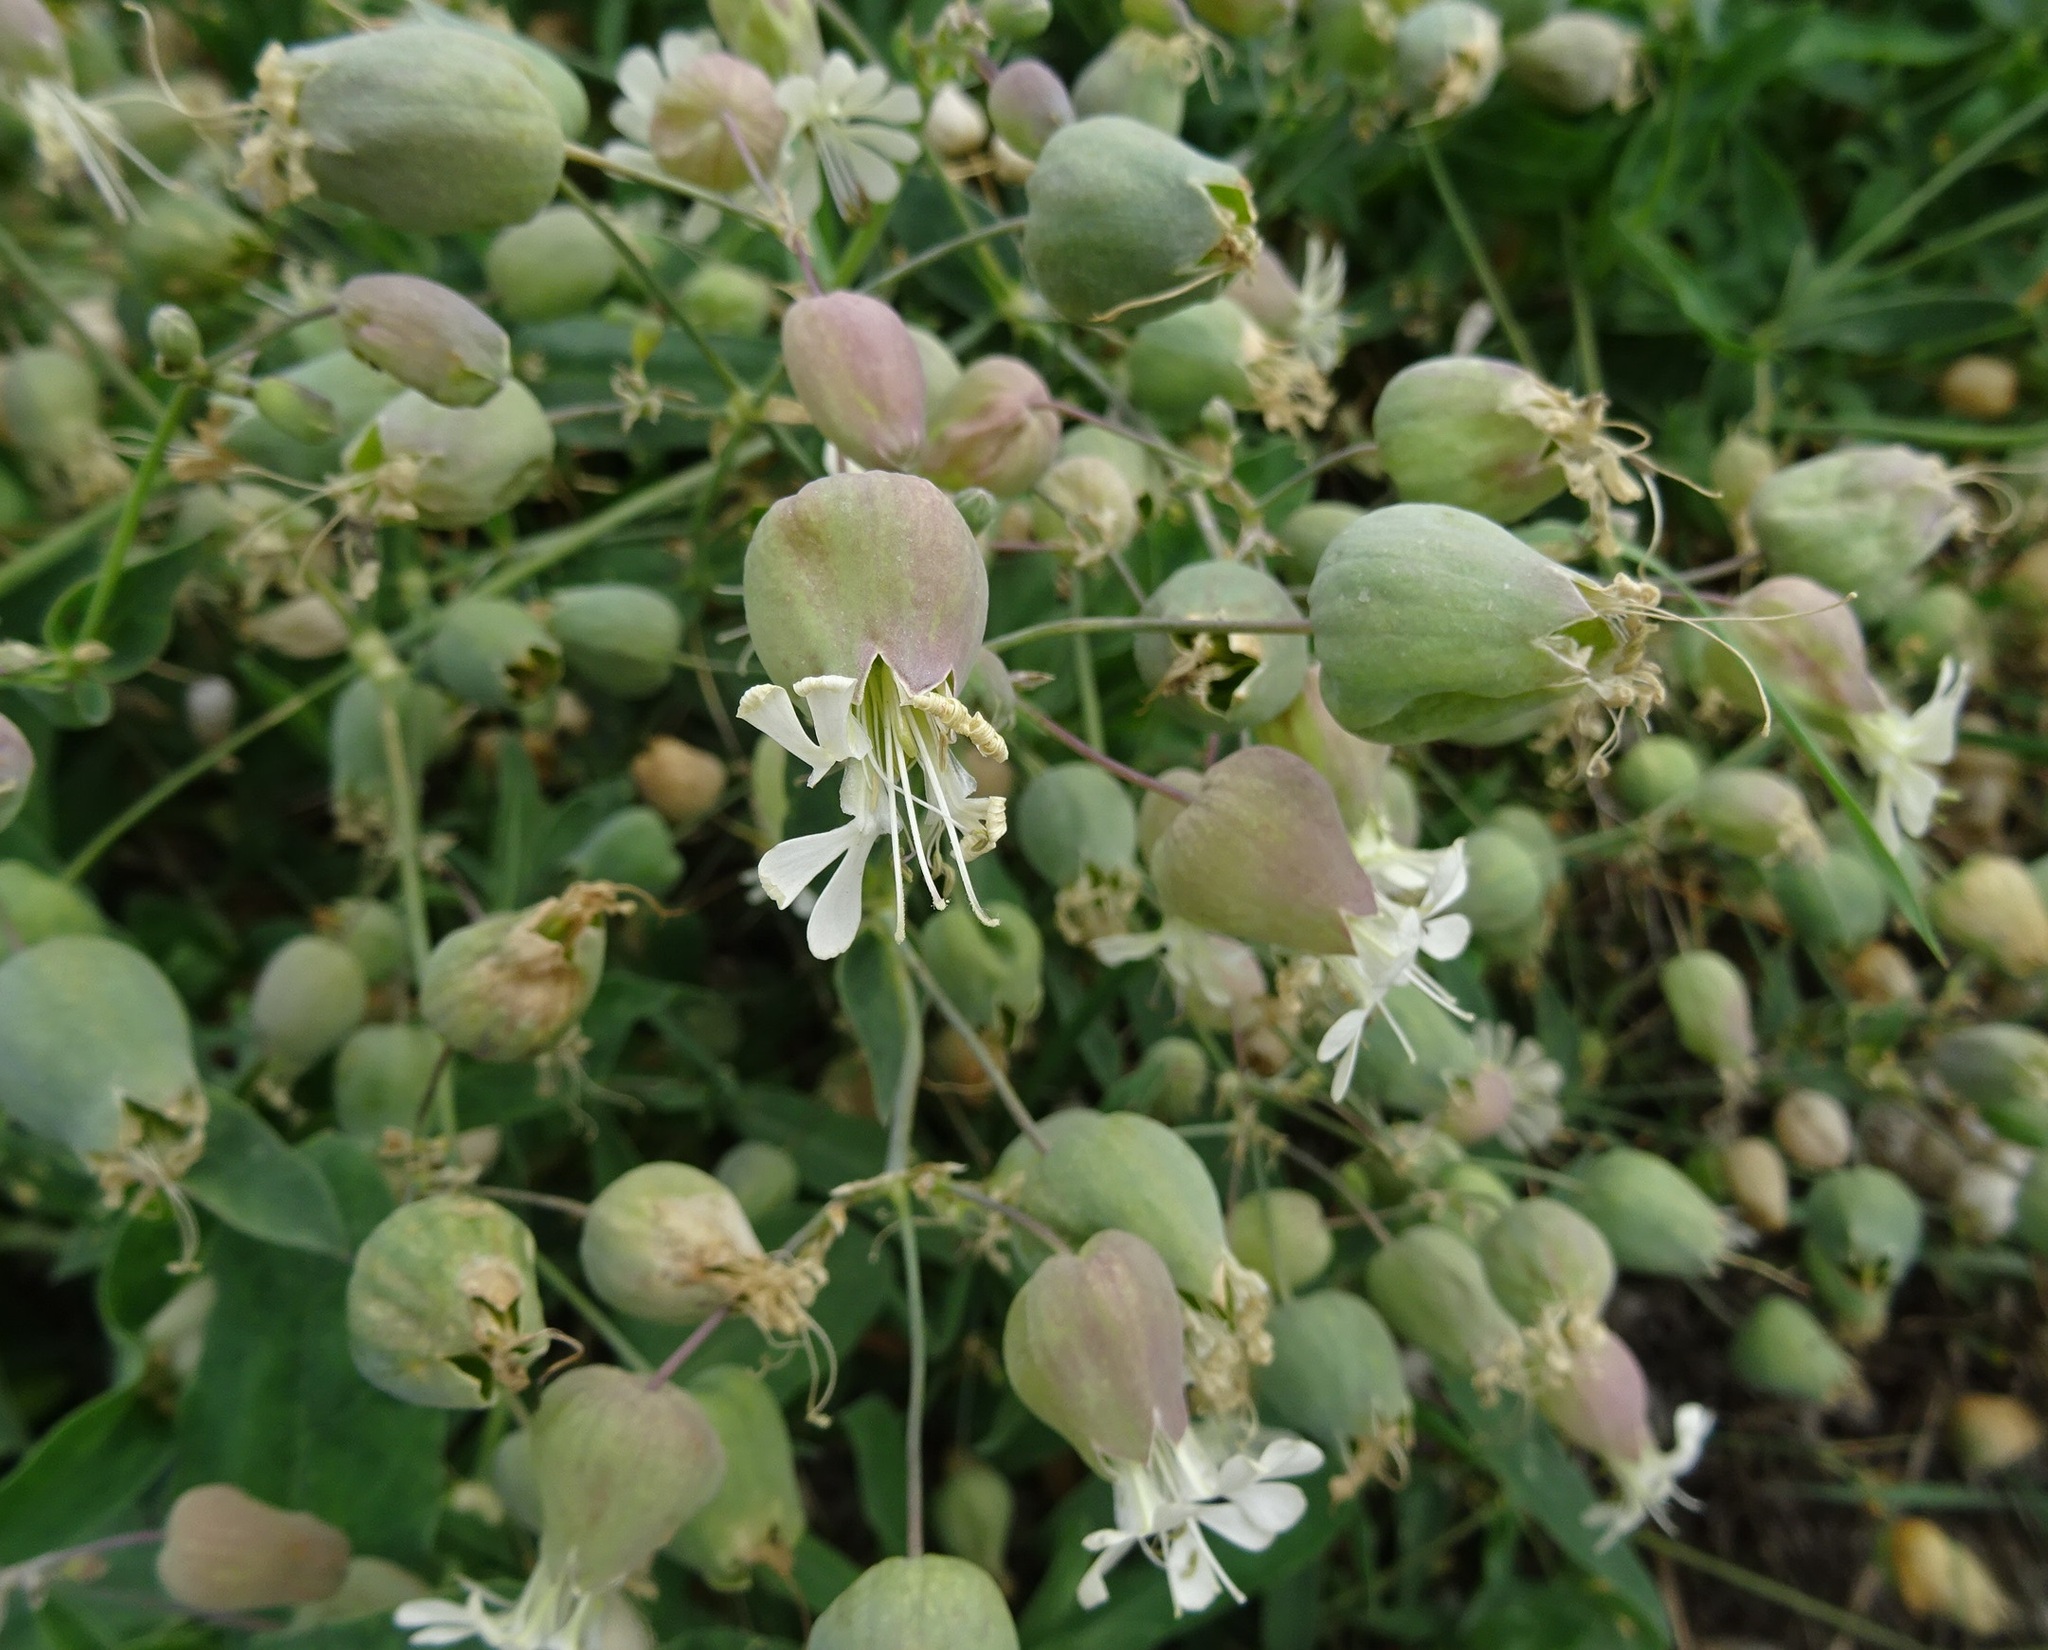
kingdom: Plantae
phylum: Tracheophyta
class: Magnoliopsida
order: Caryophyllales
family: Caryophyllaceae
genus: Silene
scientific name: Silene vulgaris
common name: Bladder campion
